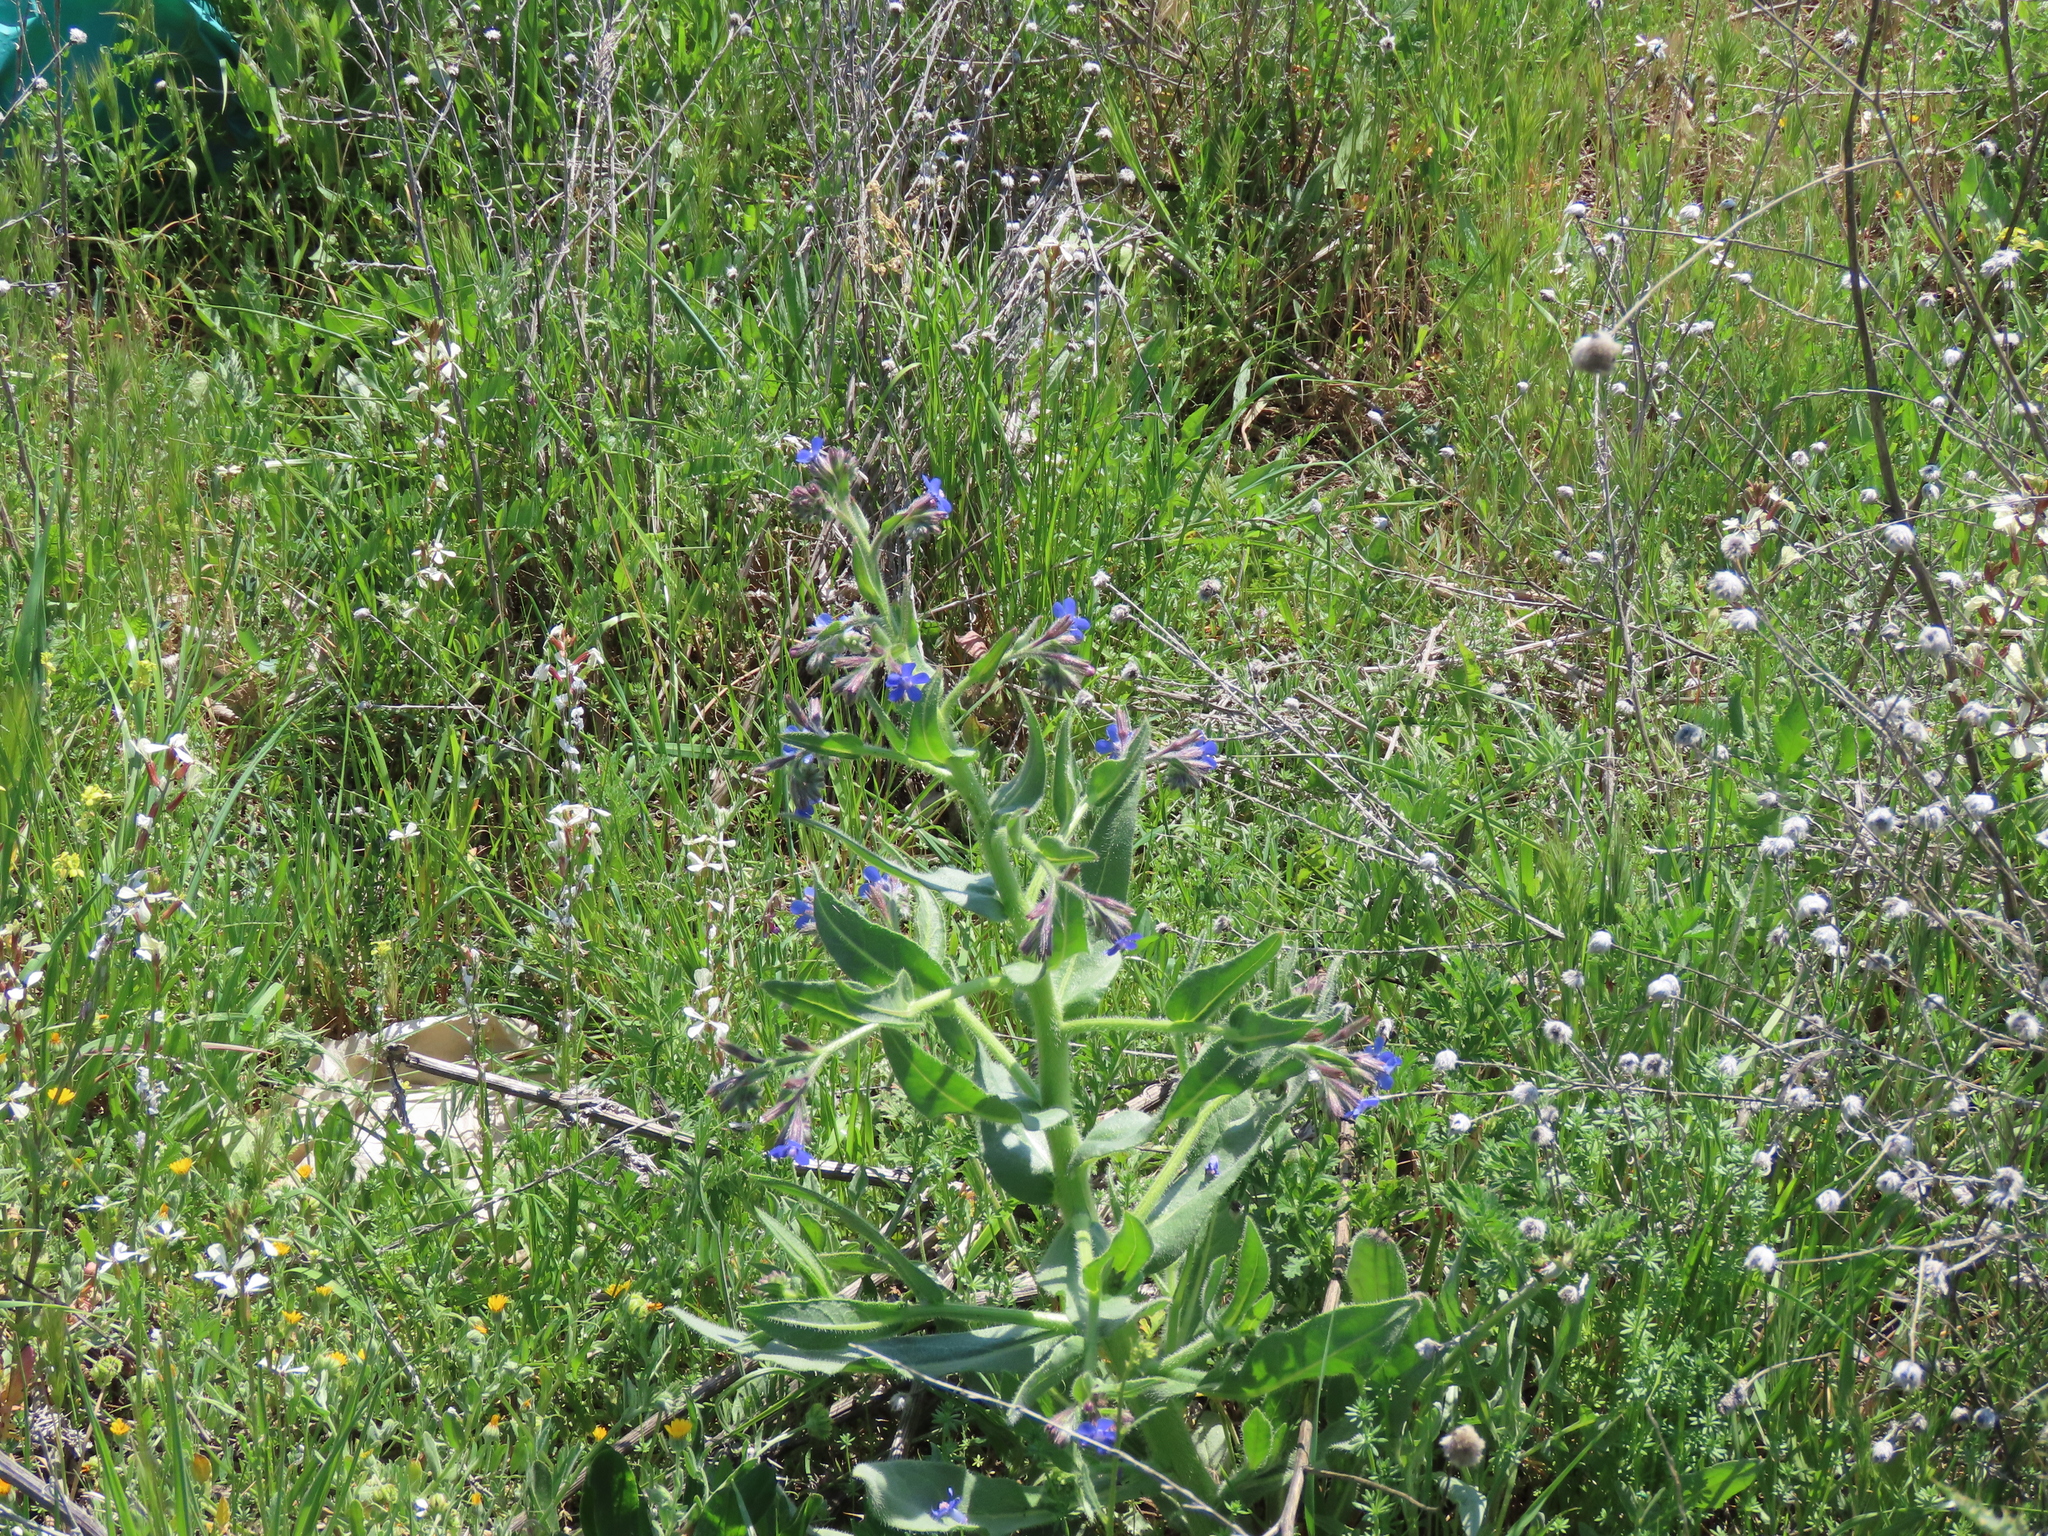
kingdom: Plantae
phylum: Tracheophyta
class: Magnoliopsida
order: Boraginales
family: Boraginaceae
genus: Anchusa
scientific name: Anchusa azurea
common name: Garden anchusa
